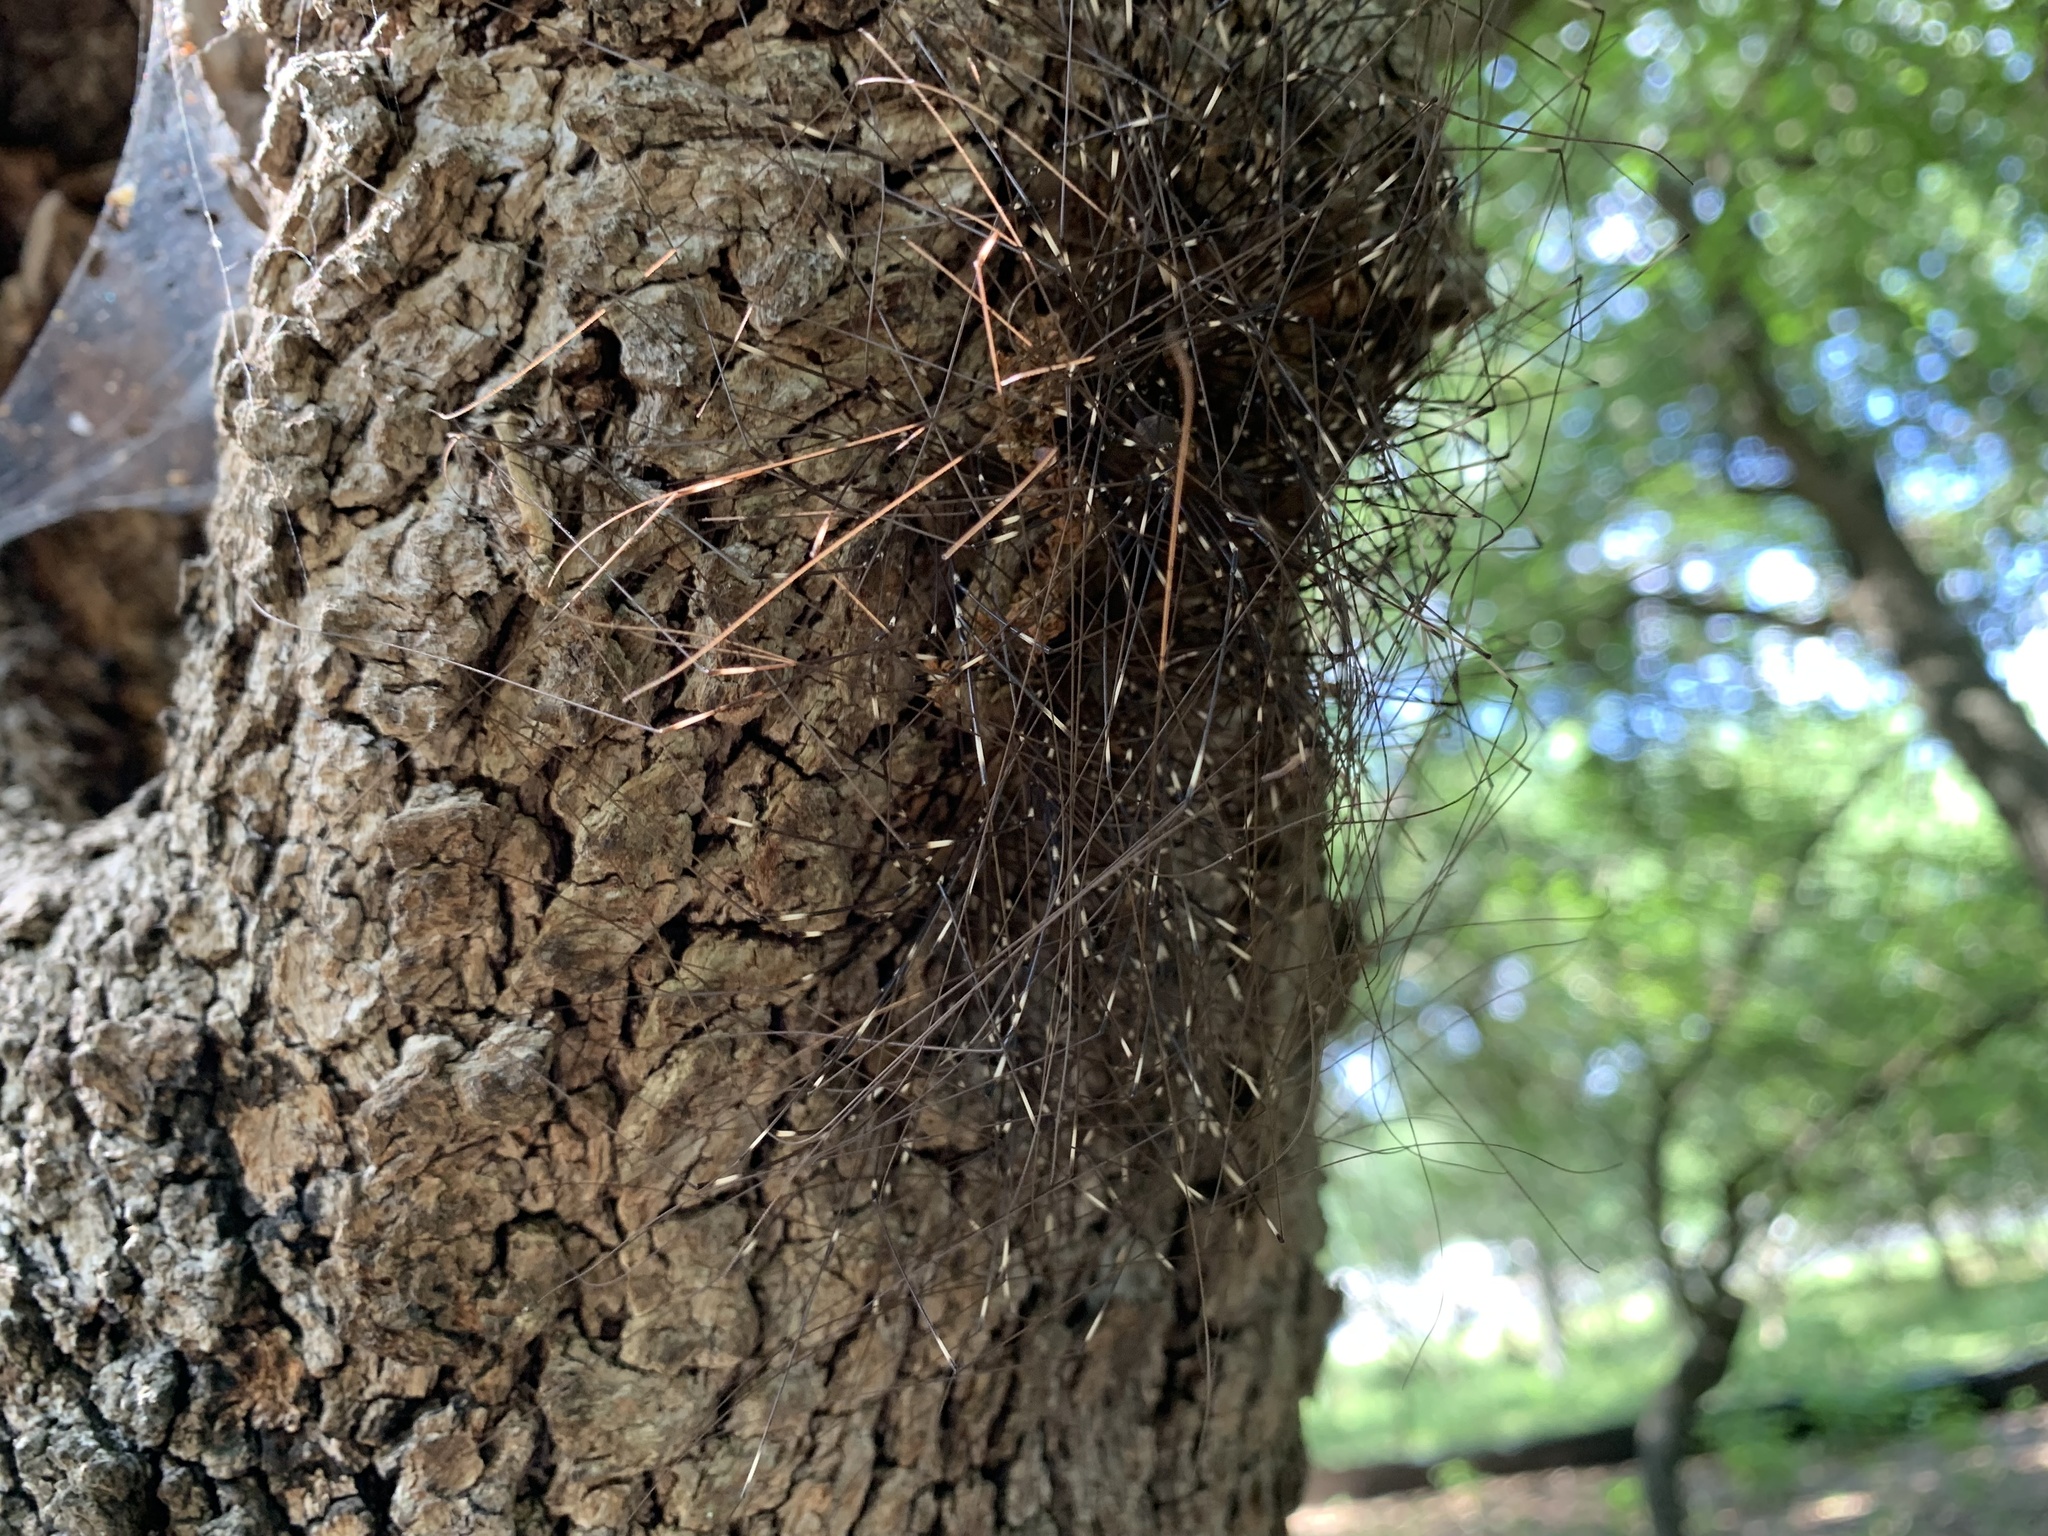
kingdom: Animalia
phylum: Arthropoda
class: Arachnida
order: Opiliones
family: Sclerosomatidae
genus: Leiobunum
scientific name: Leiobunum townsendi
